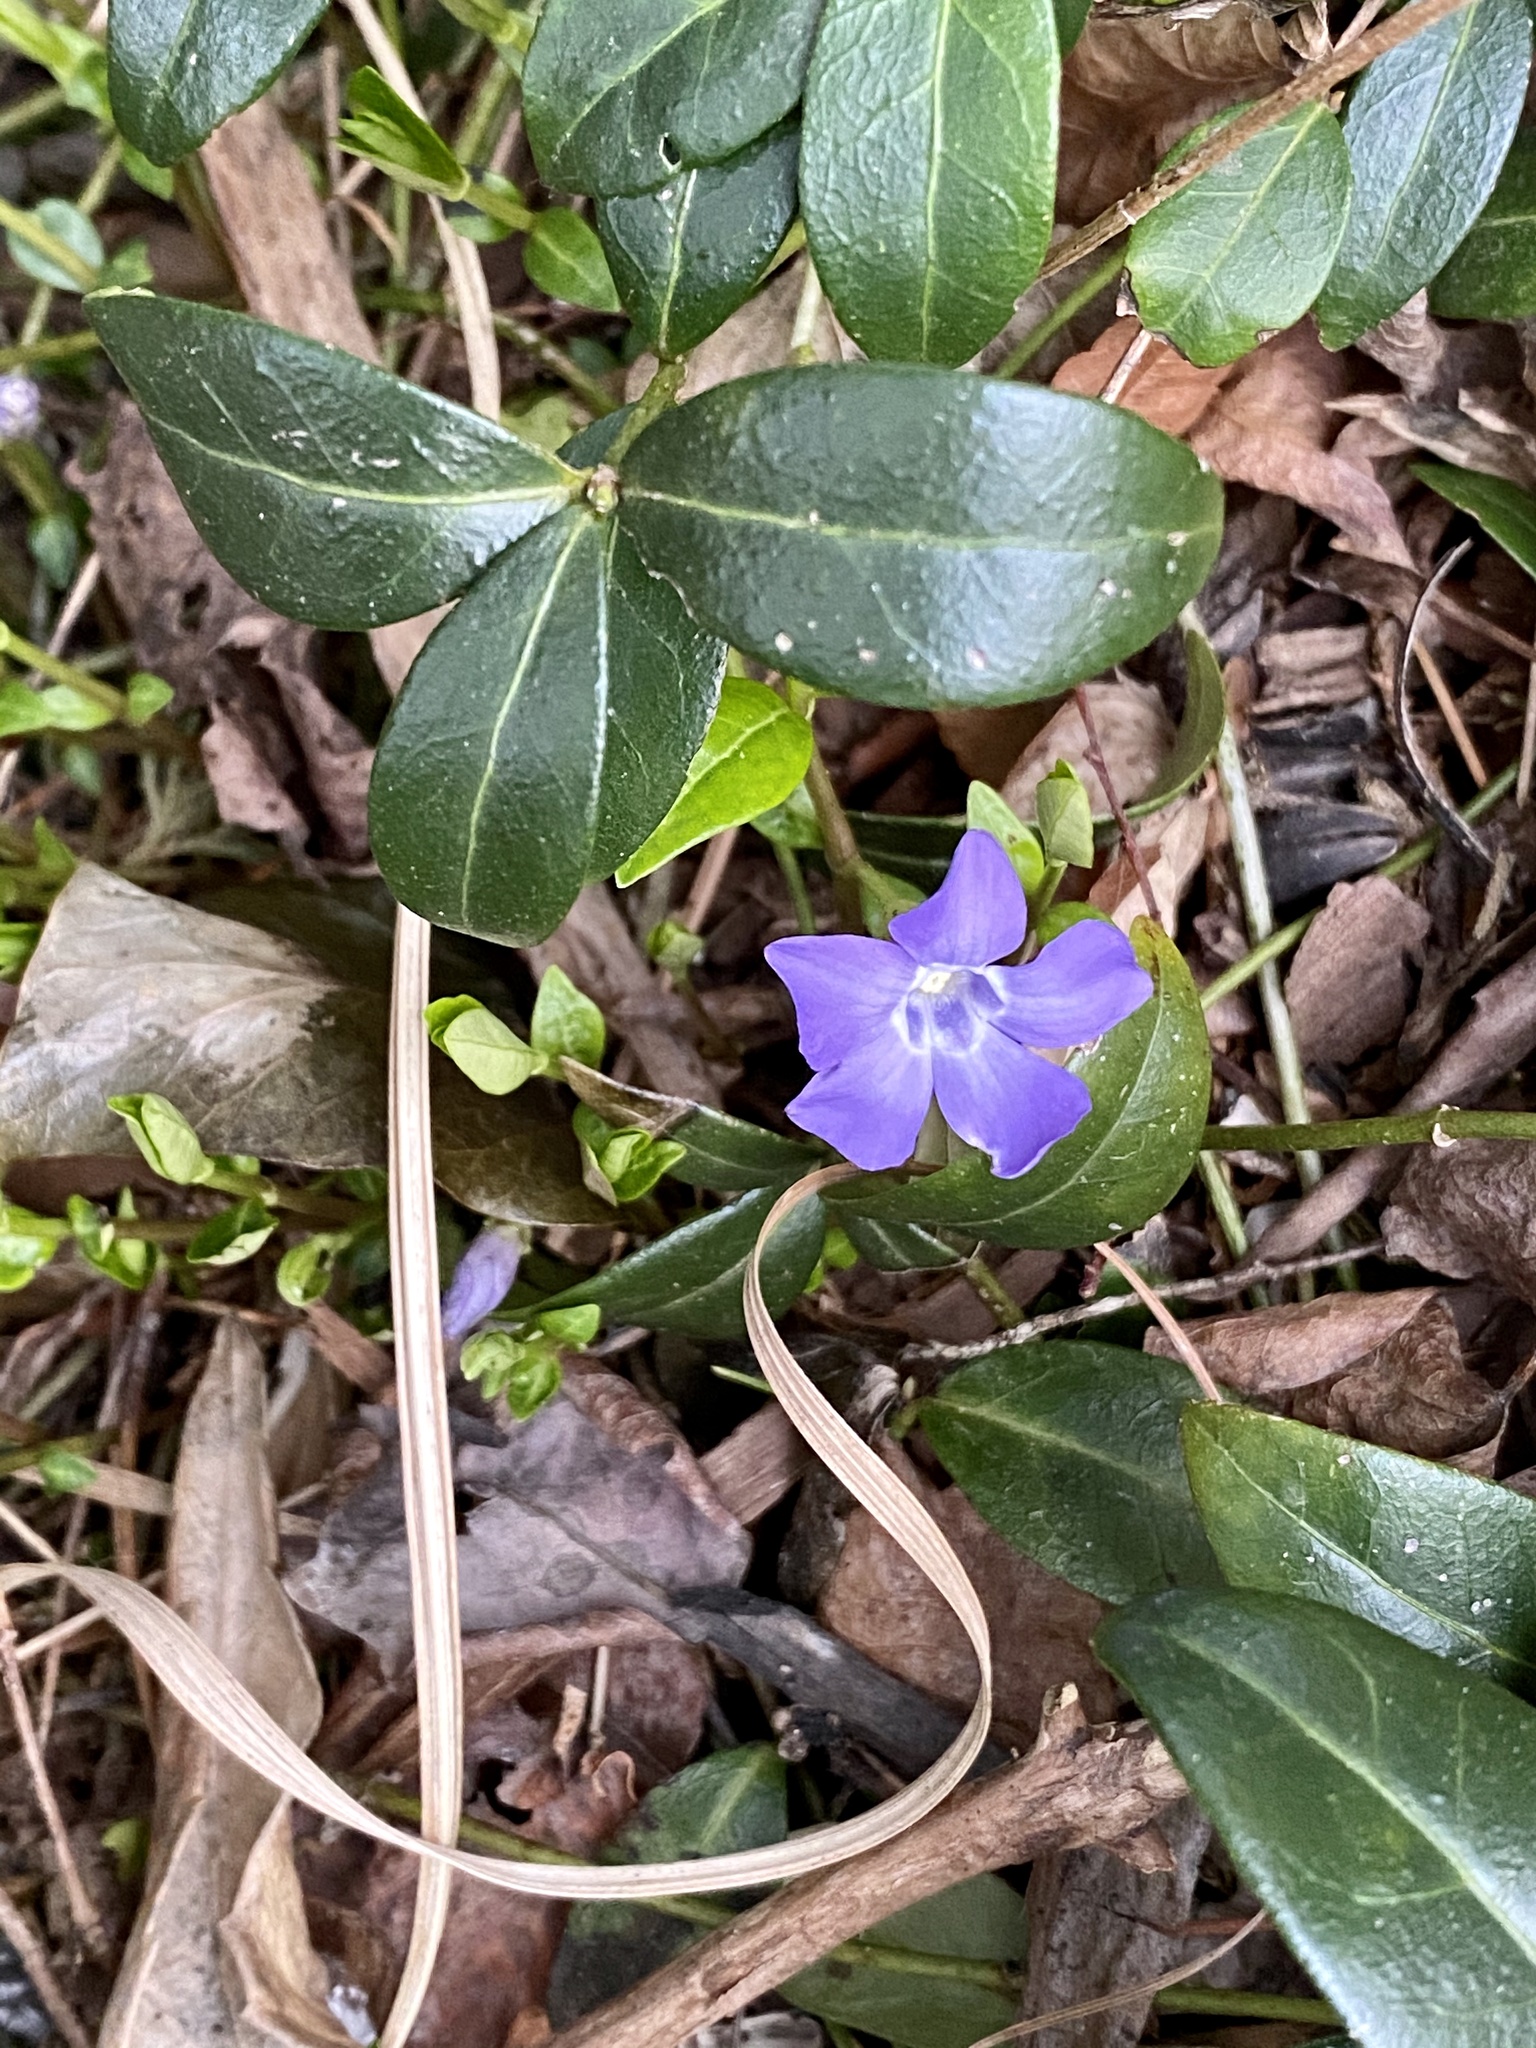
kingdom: Plantae
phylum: Tracheophyta
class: Magnoliopsida
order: Gentianales
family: Apocynaceae
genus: Vinca
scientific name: Vinca minor
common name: Lesser periwinkle
